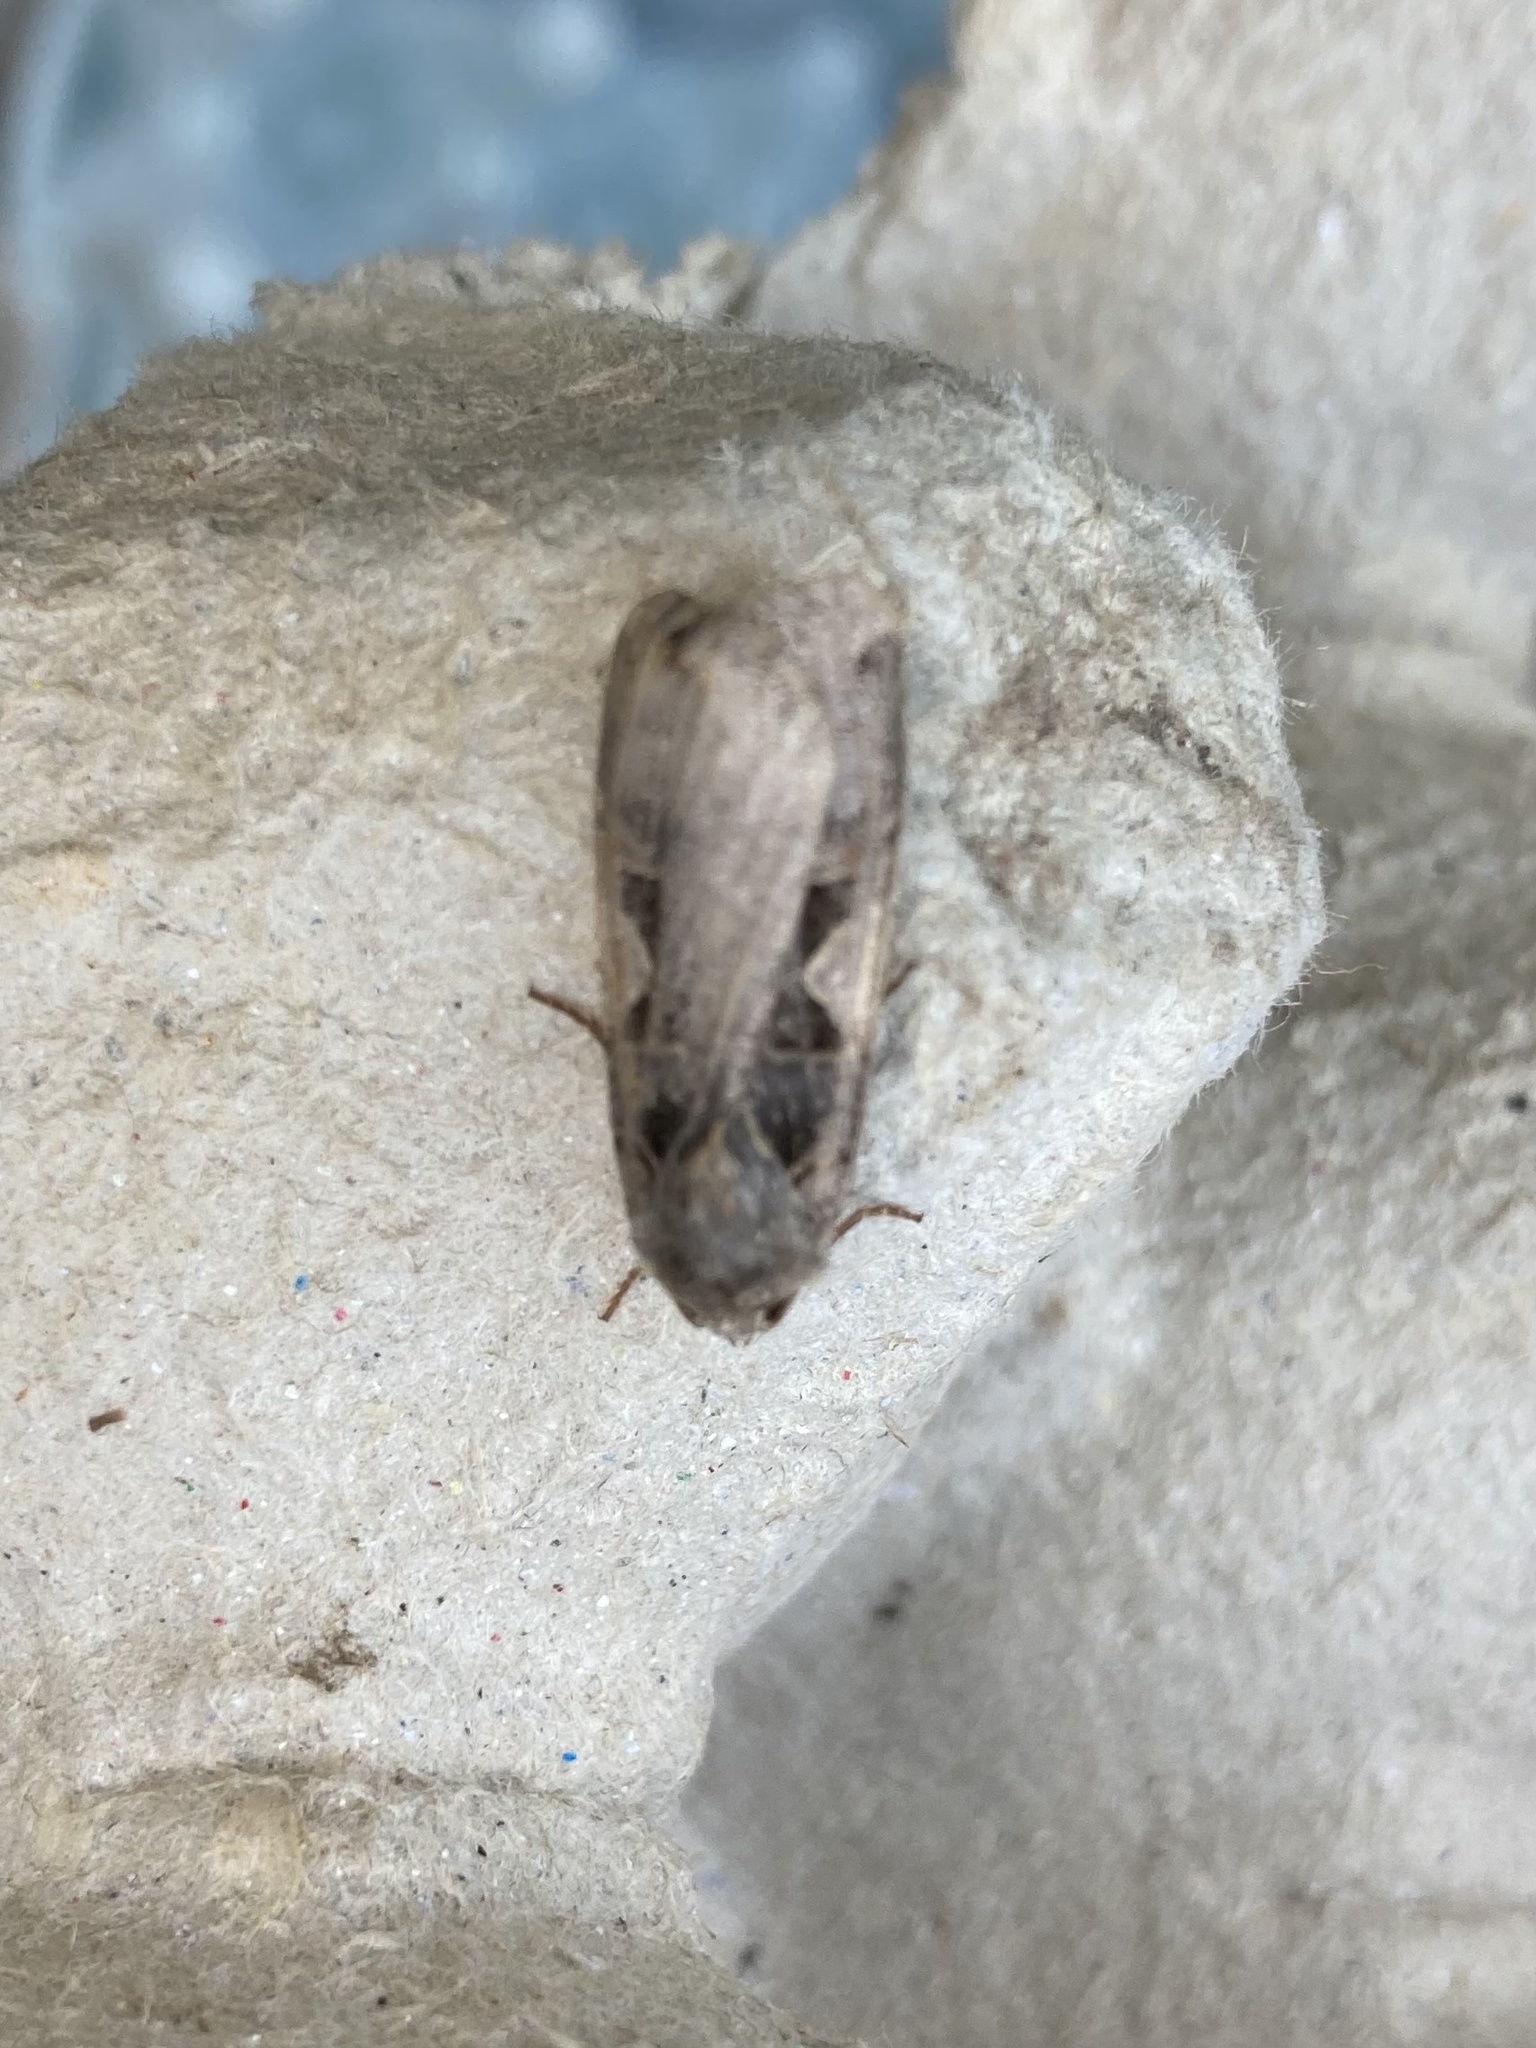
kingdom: Animalia
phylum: Arthropoda
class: Insecta
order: Lepidoptera
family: Noctuidae
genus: Xestia
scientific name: Xestia c-nigrum
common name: Setaceous hebrew character
